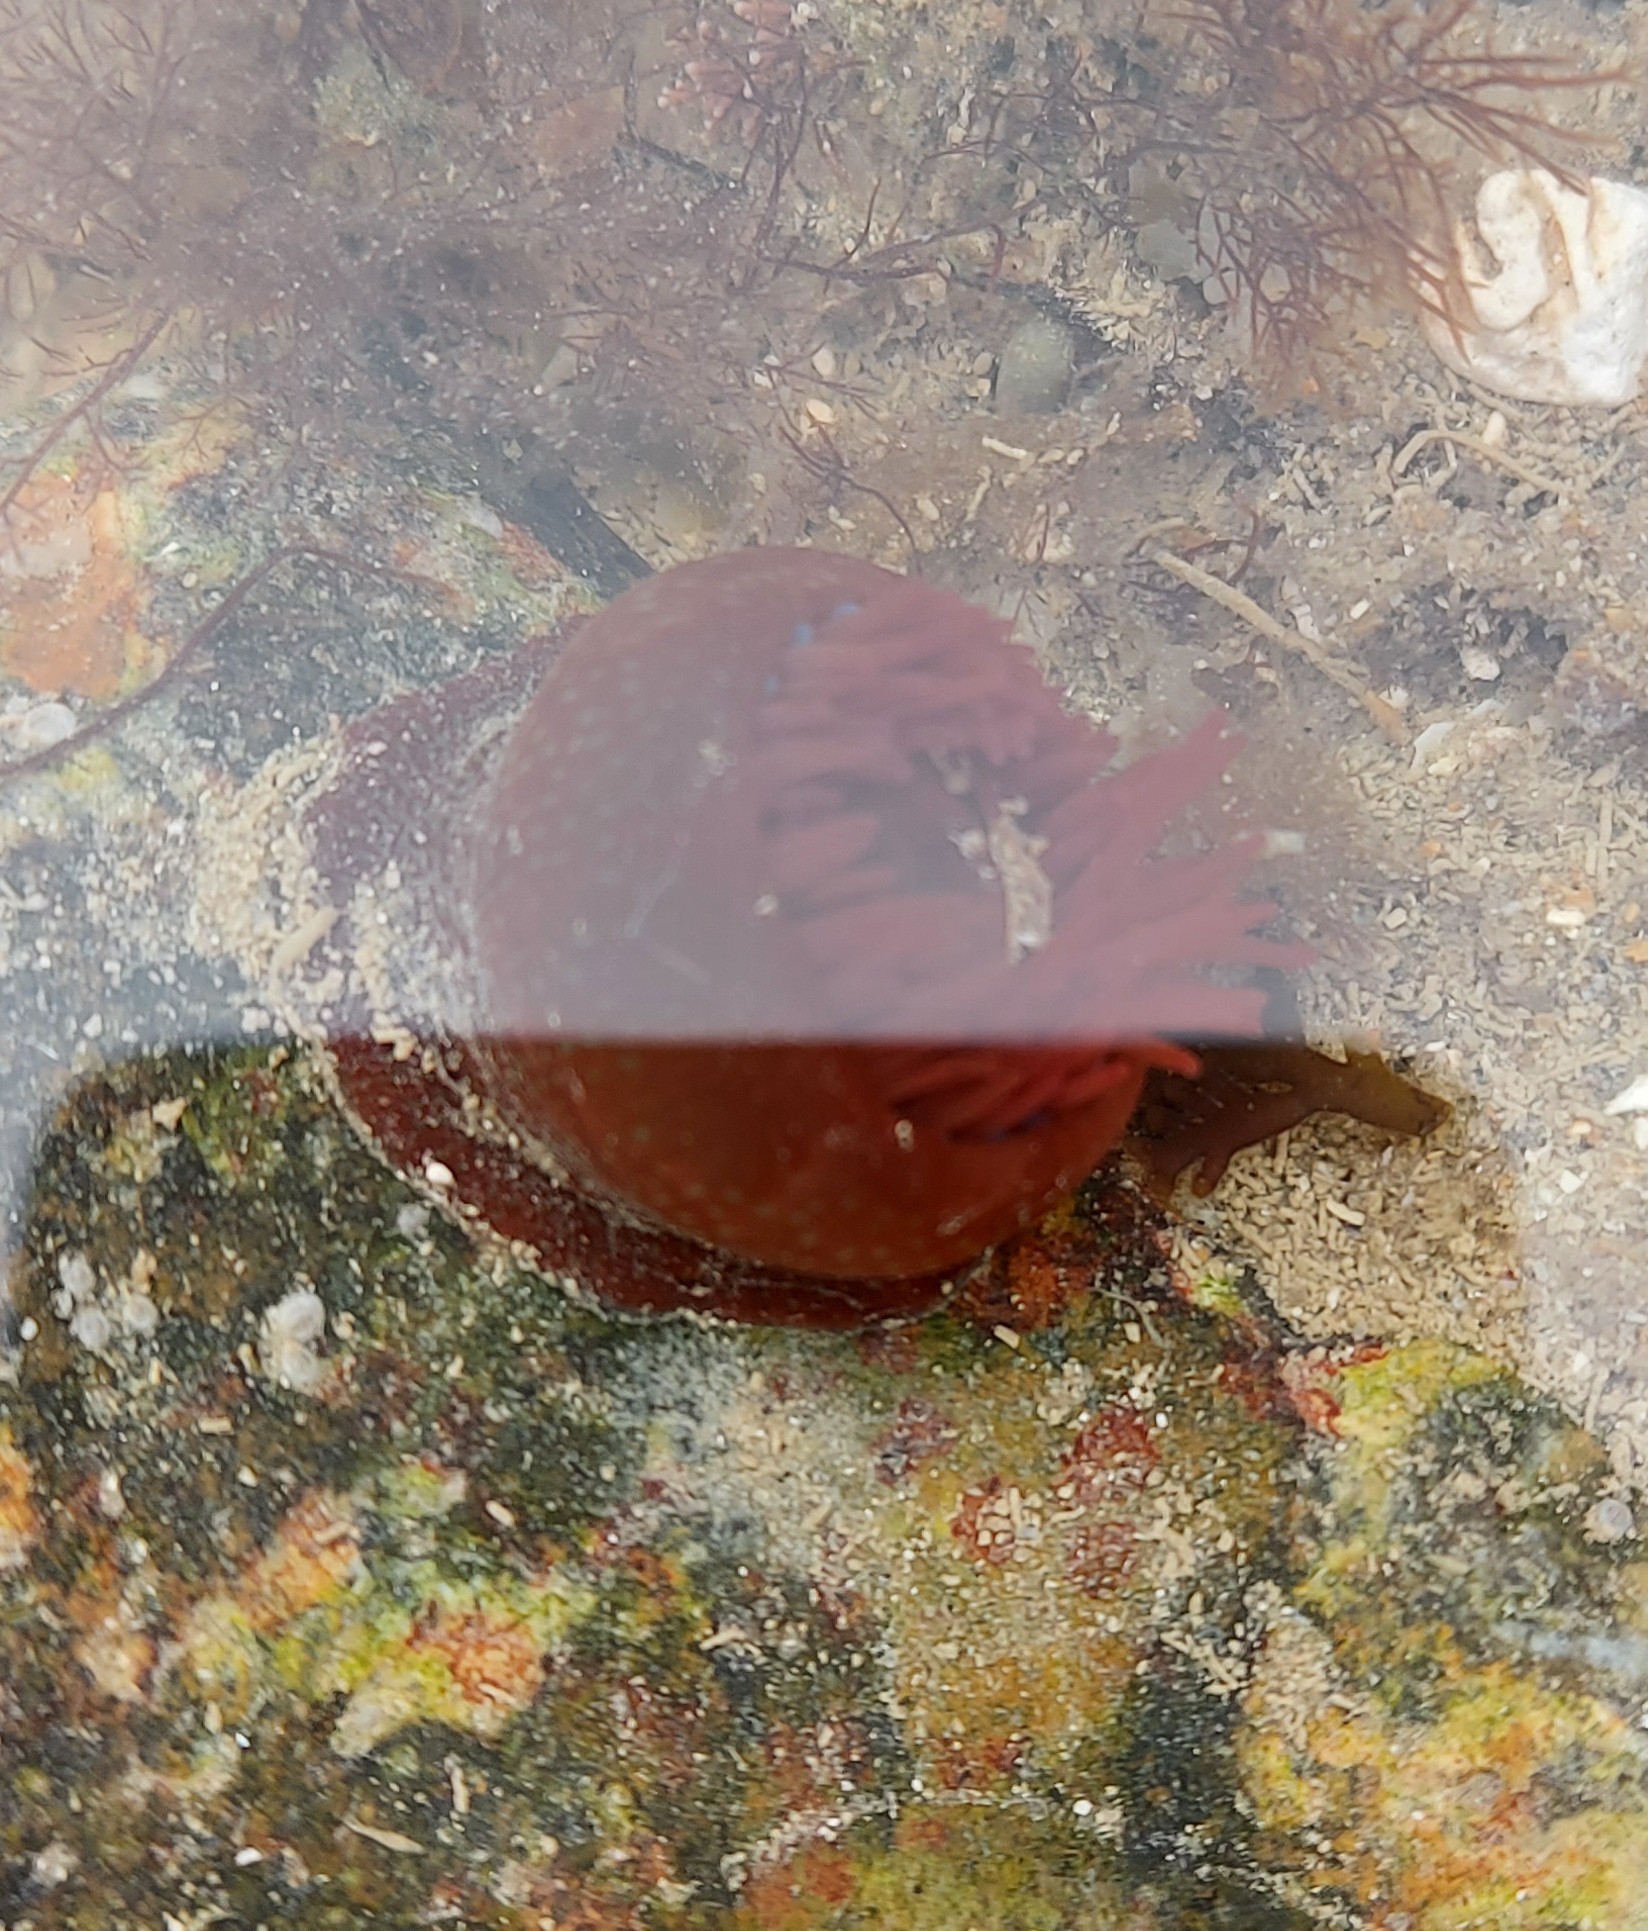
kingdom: Animalia
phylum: Cnidaria
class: Anthozoa
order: Actiniaria
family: Actiniidae
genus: Actinia
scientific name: Actinia fragacea
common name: Strawberry anemone
